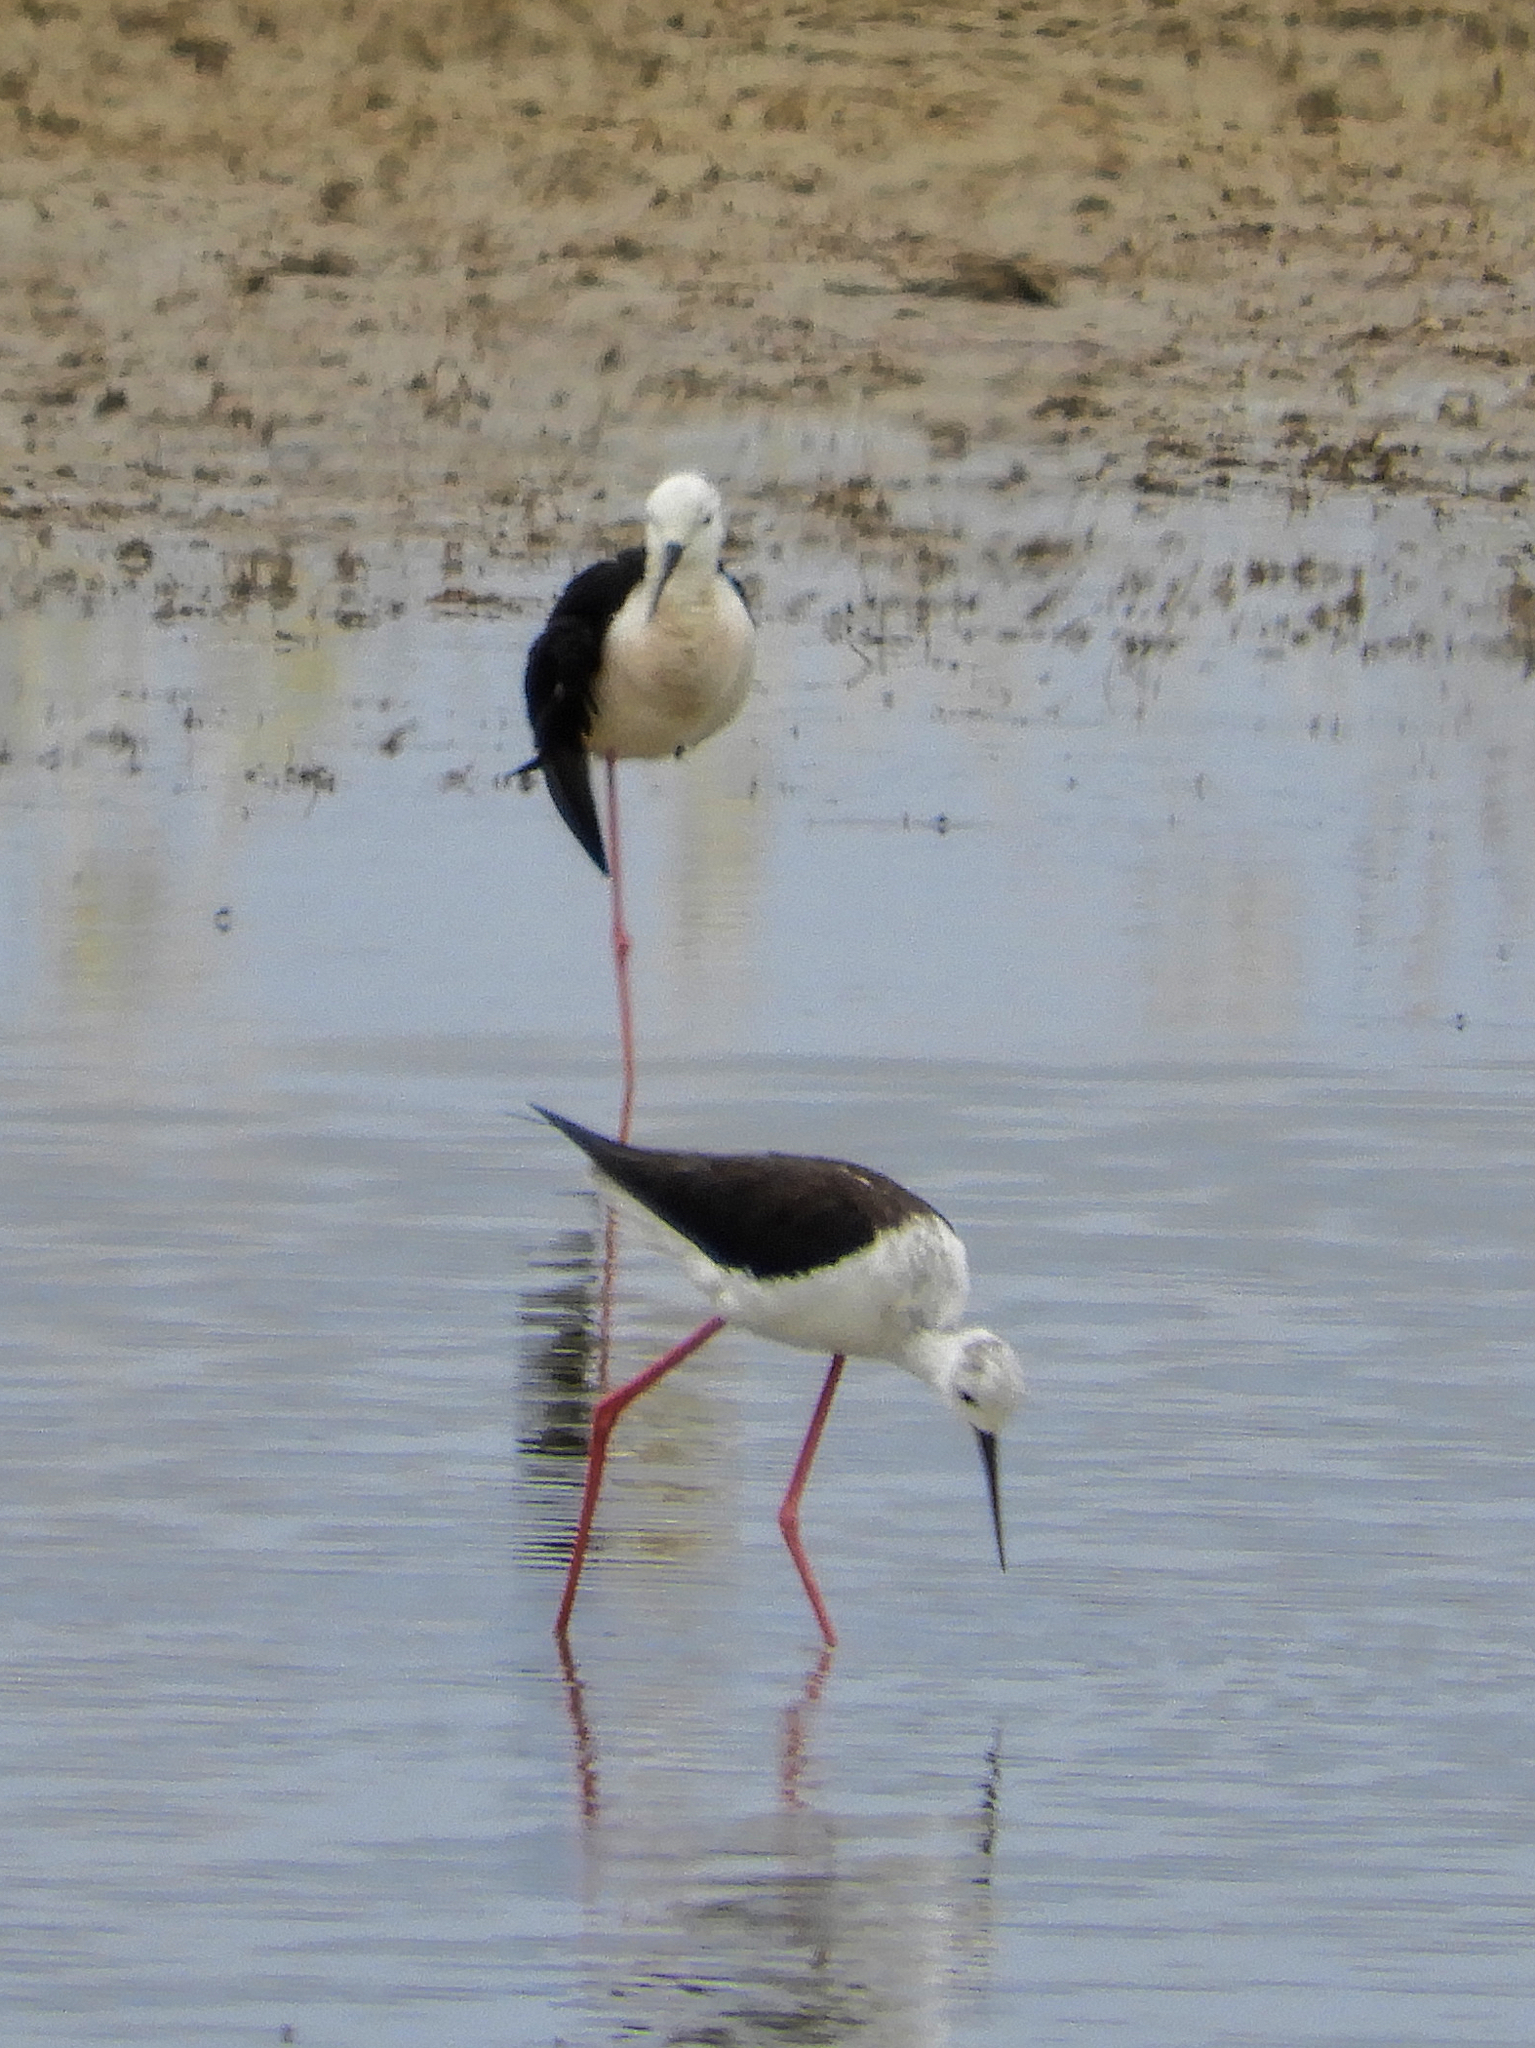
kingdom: Animalia
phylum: Chordata
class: Aves
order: Charadriiformes
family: Recurvirostridae
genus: Himantopus
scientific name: Himantopus himantopus
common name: Black-winged stilt
